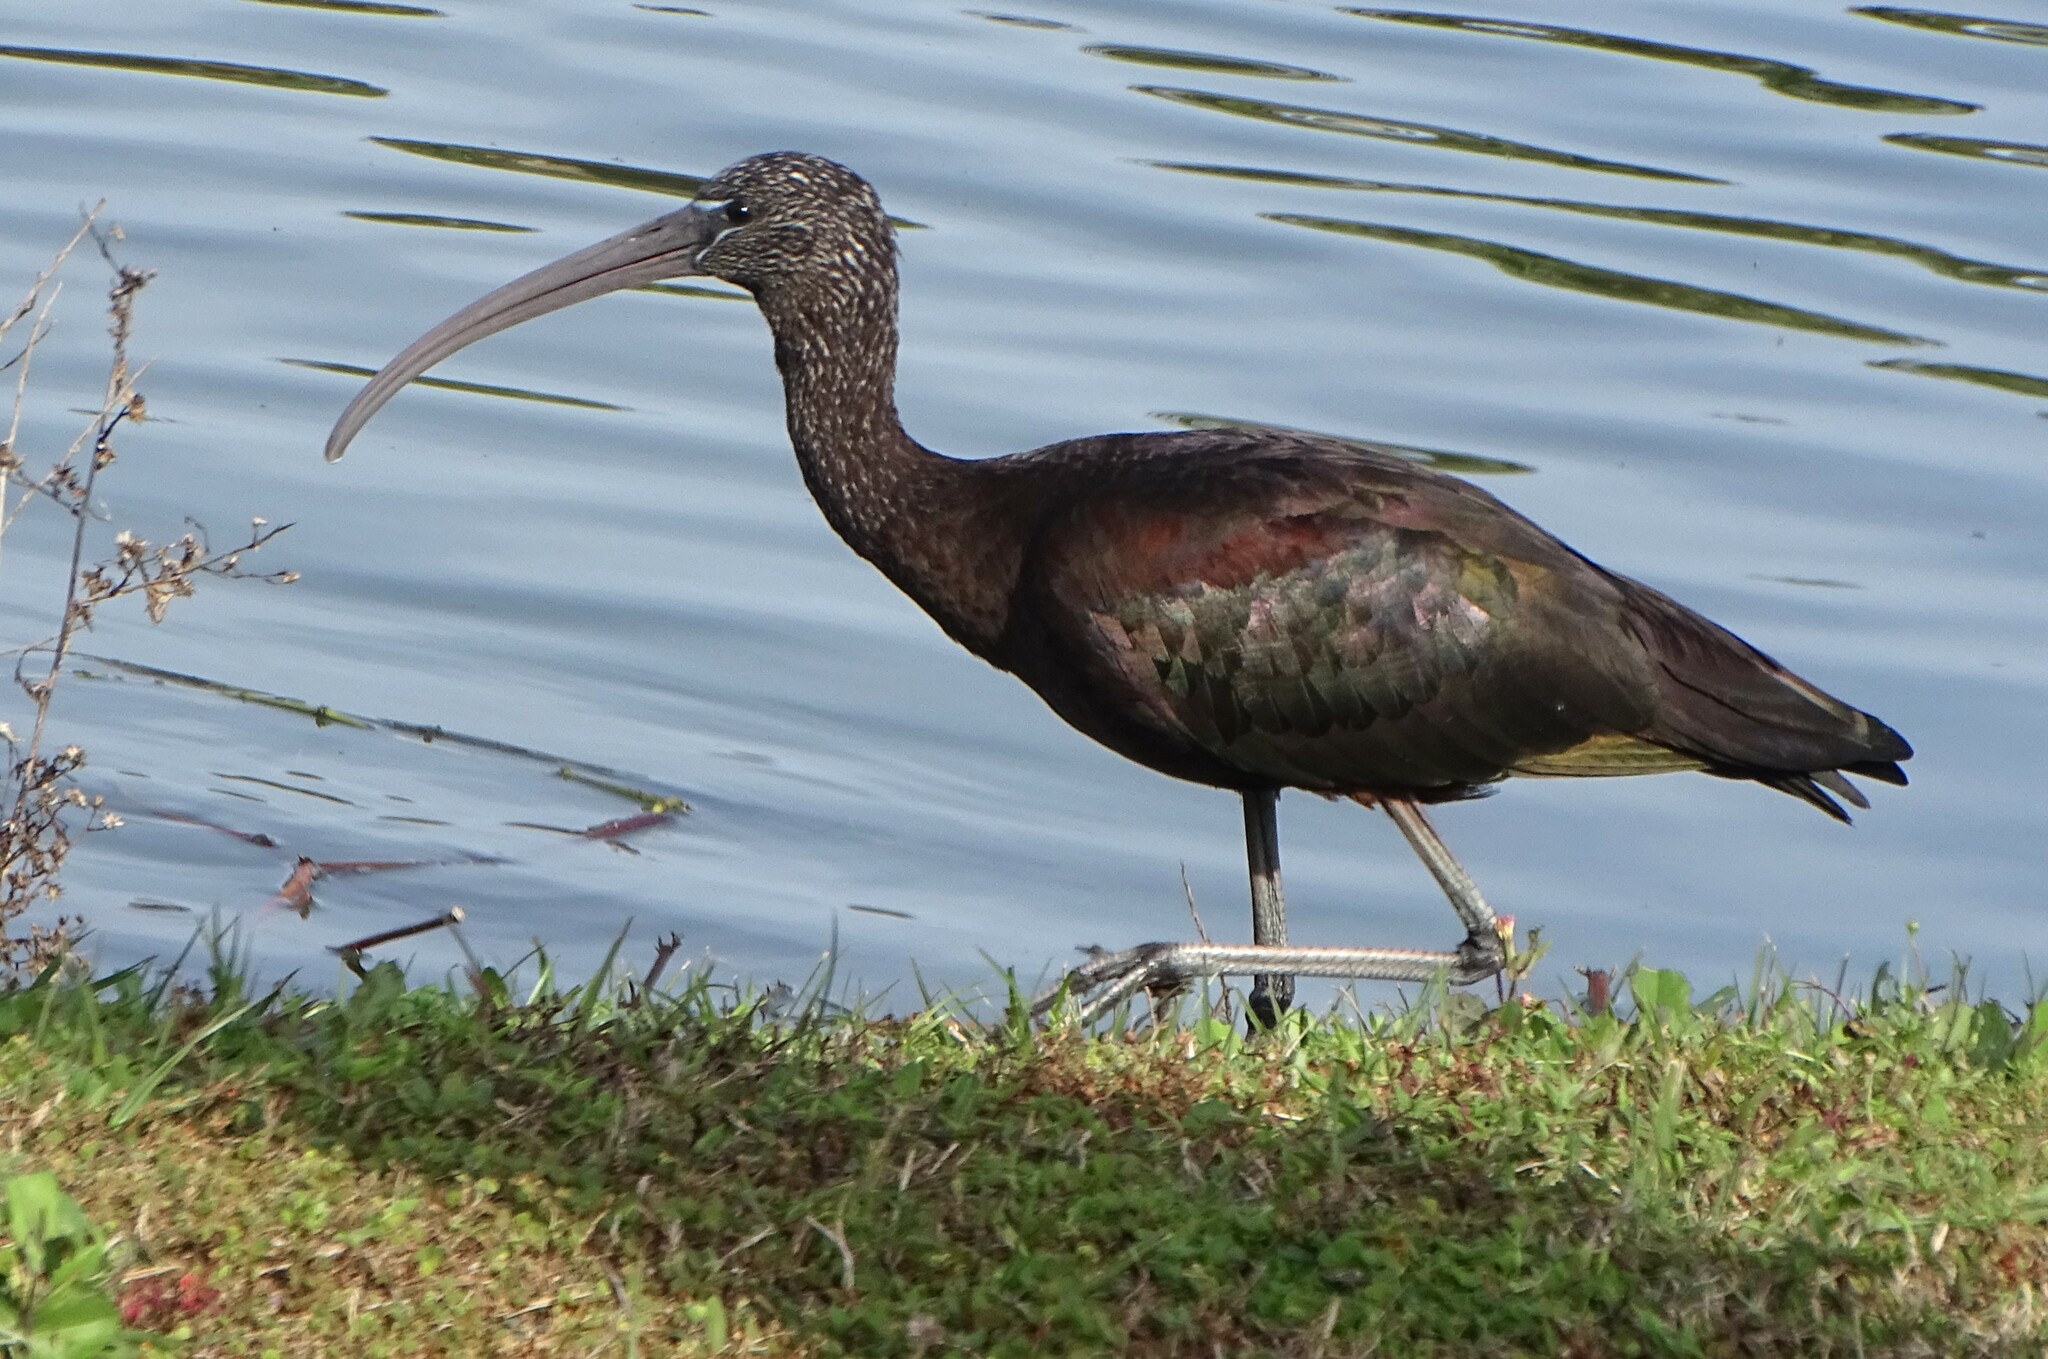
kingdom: Animalia
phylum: Chordata
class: Aves
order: Pelecaniformes
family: Threskiornithidae
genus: Plegadis
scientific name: Plegadis falcinellus
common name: Glossy ibis
